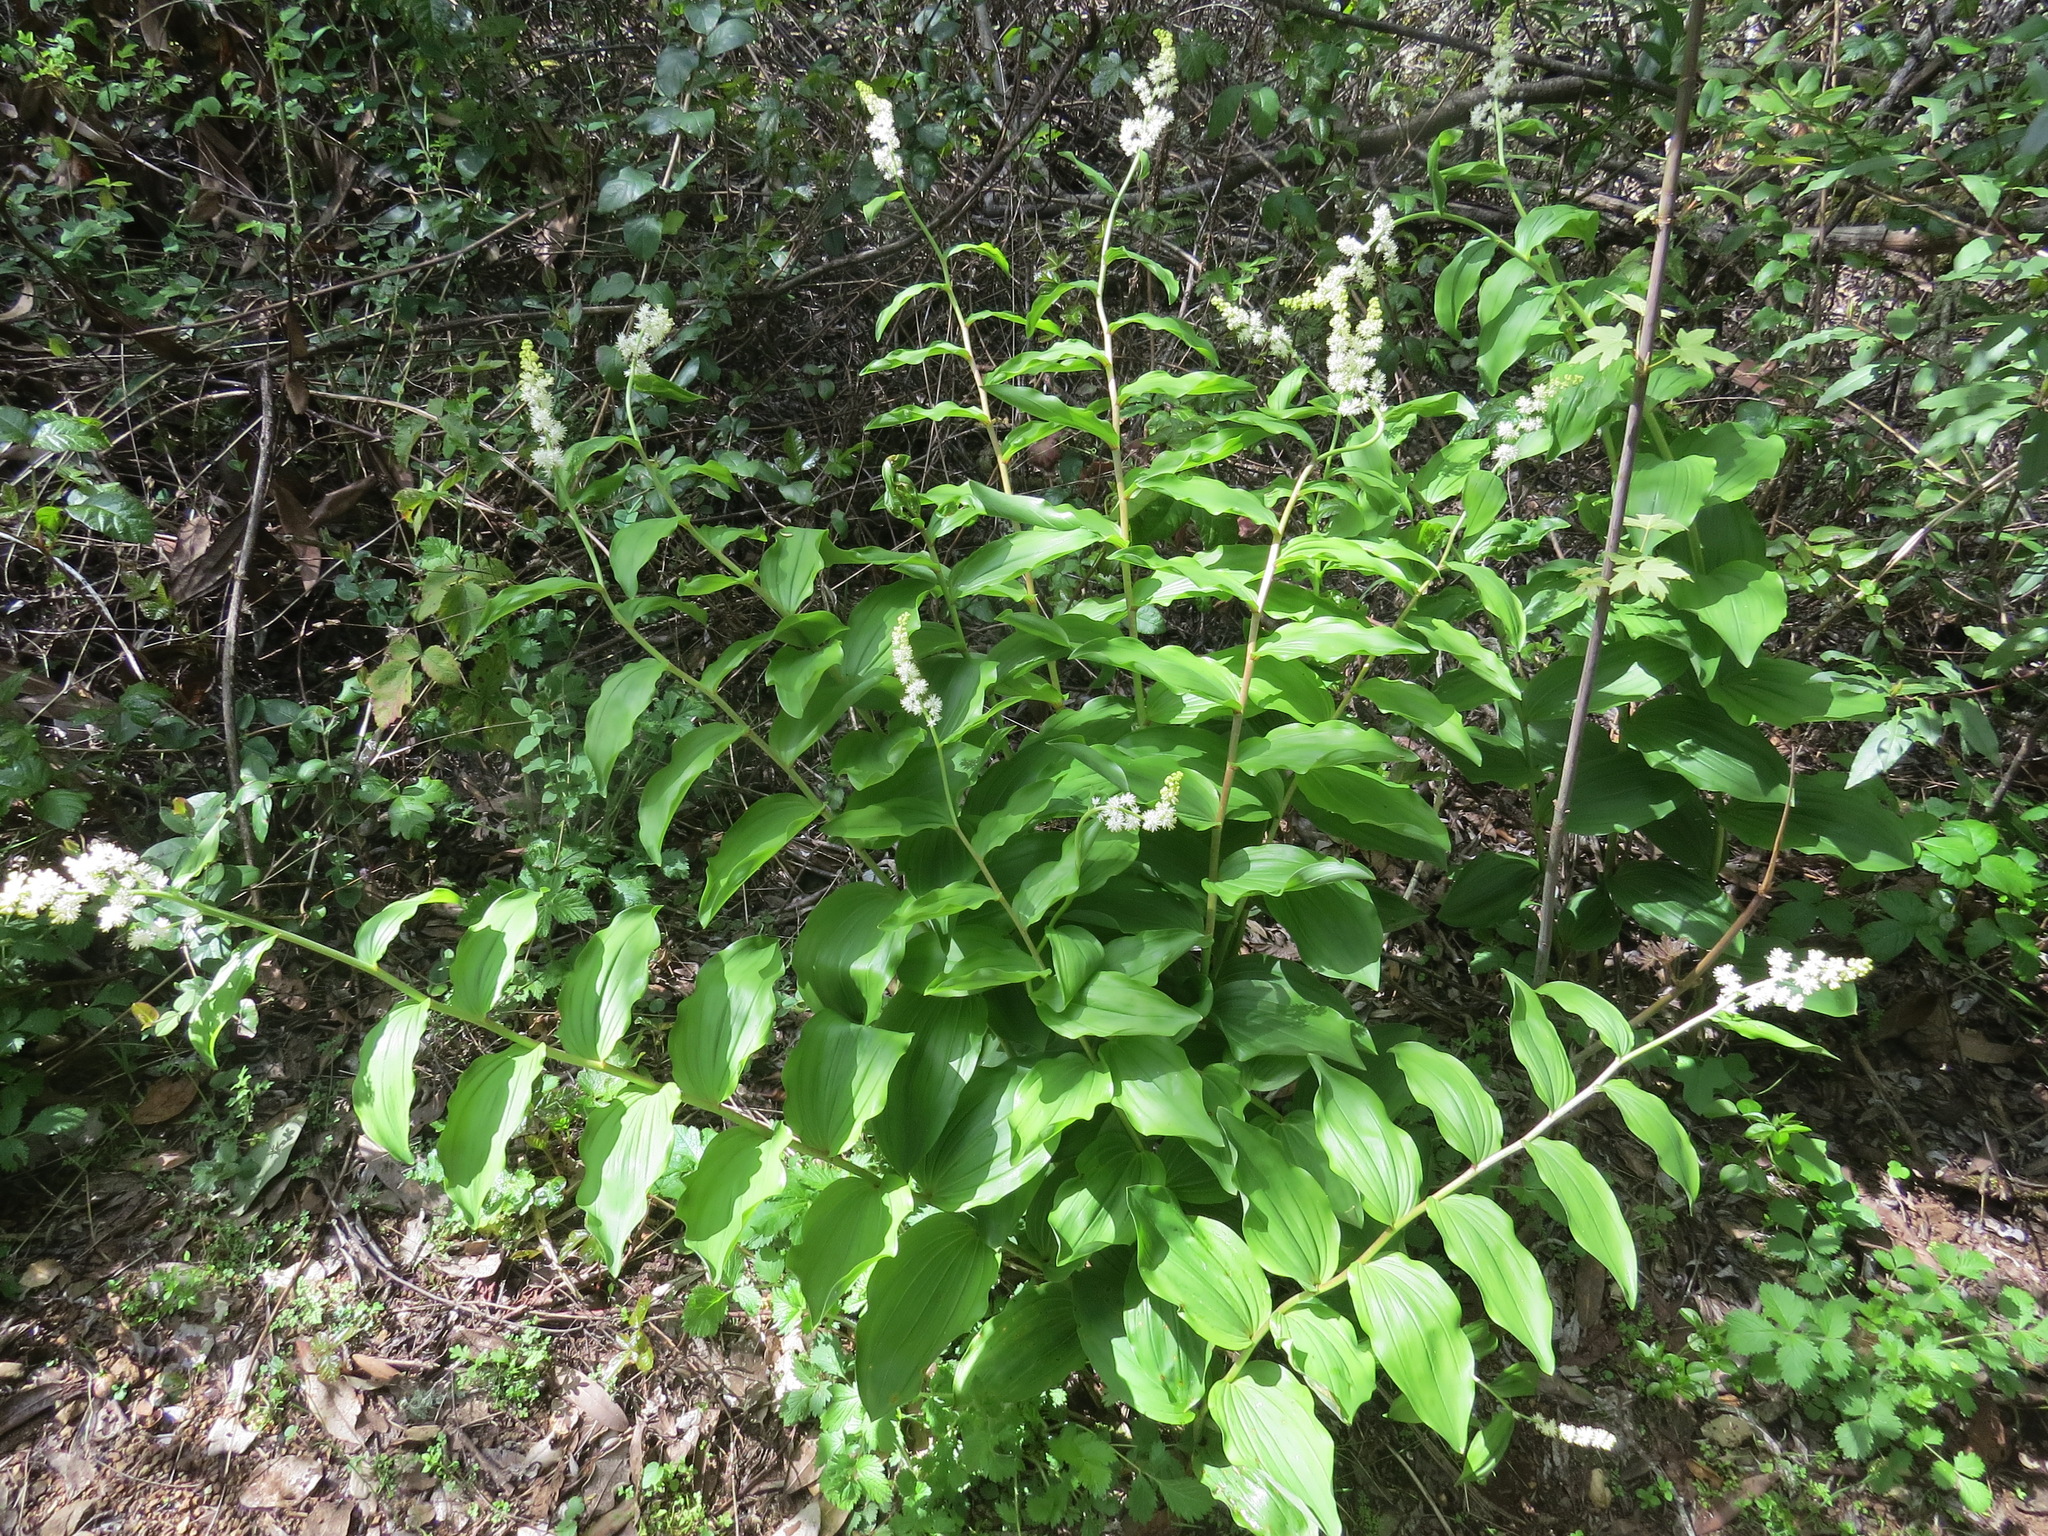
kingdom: Plantae
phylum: Tracheophyta
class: Liliopsida
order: Asparagales
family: Asparagaceae
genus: Maianthemum
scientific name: Maianthemum racemosum
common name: False spikenard
